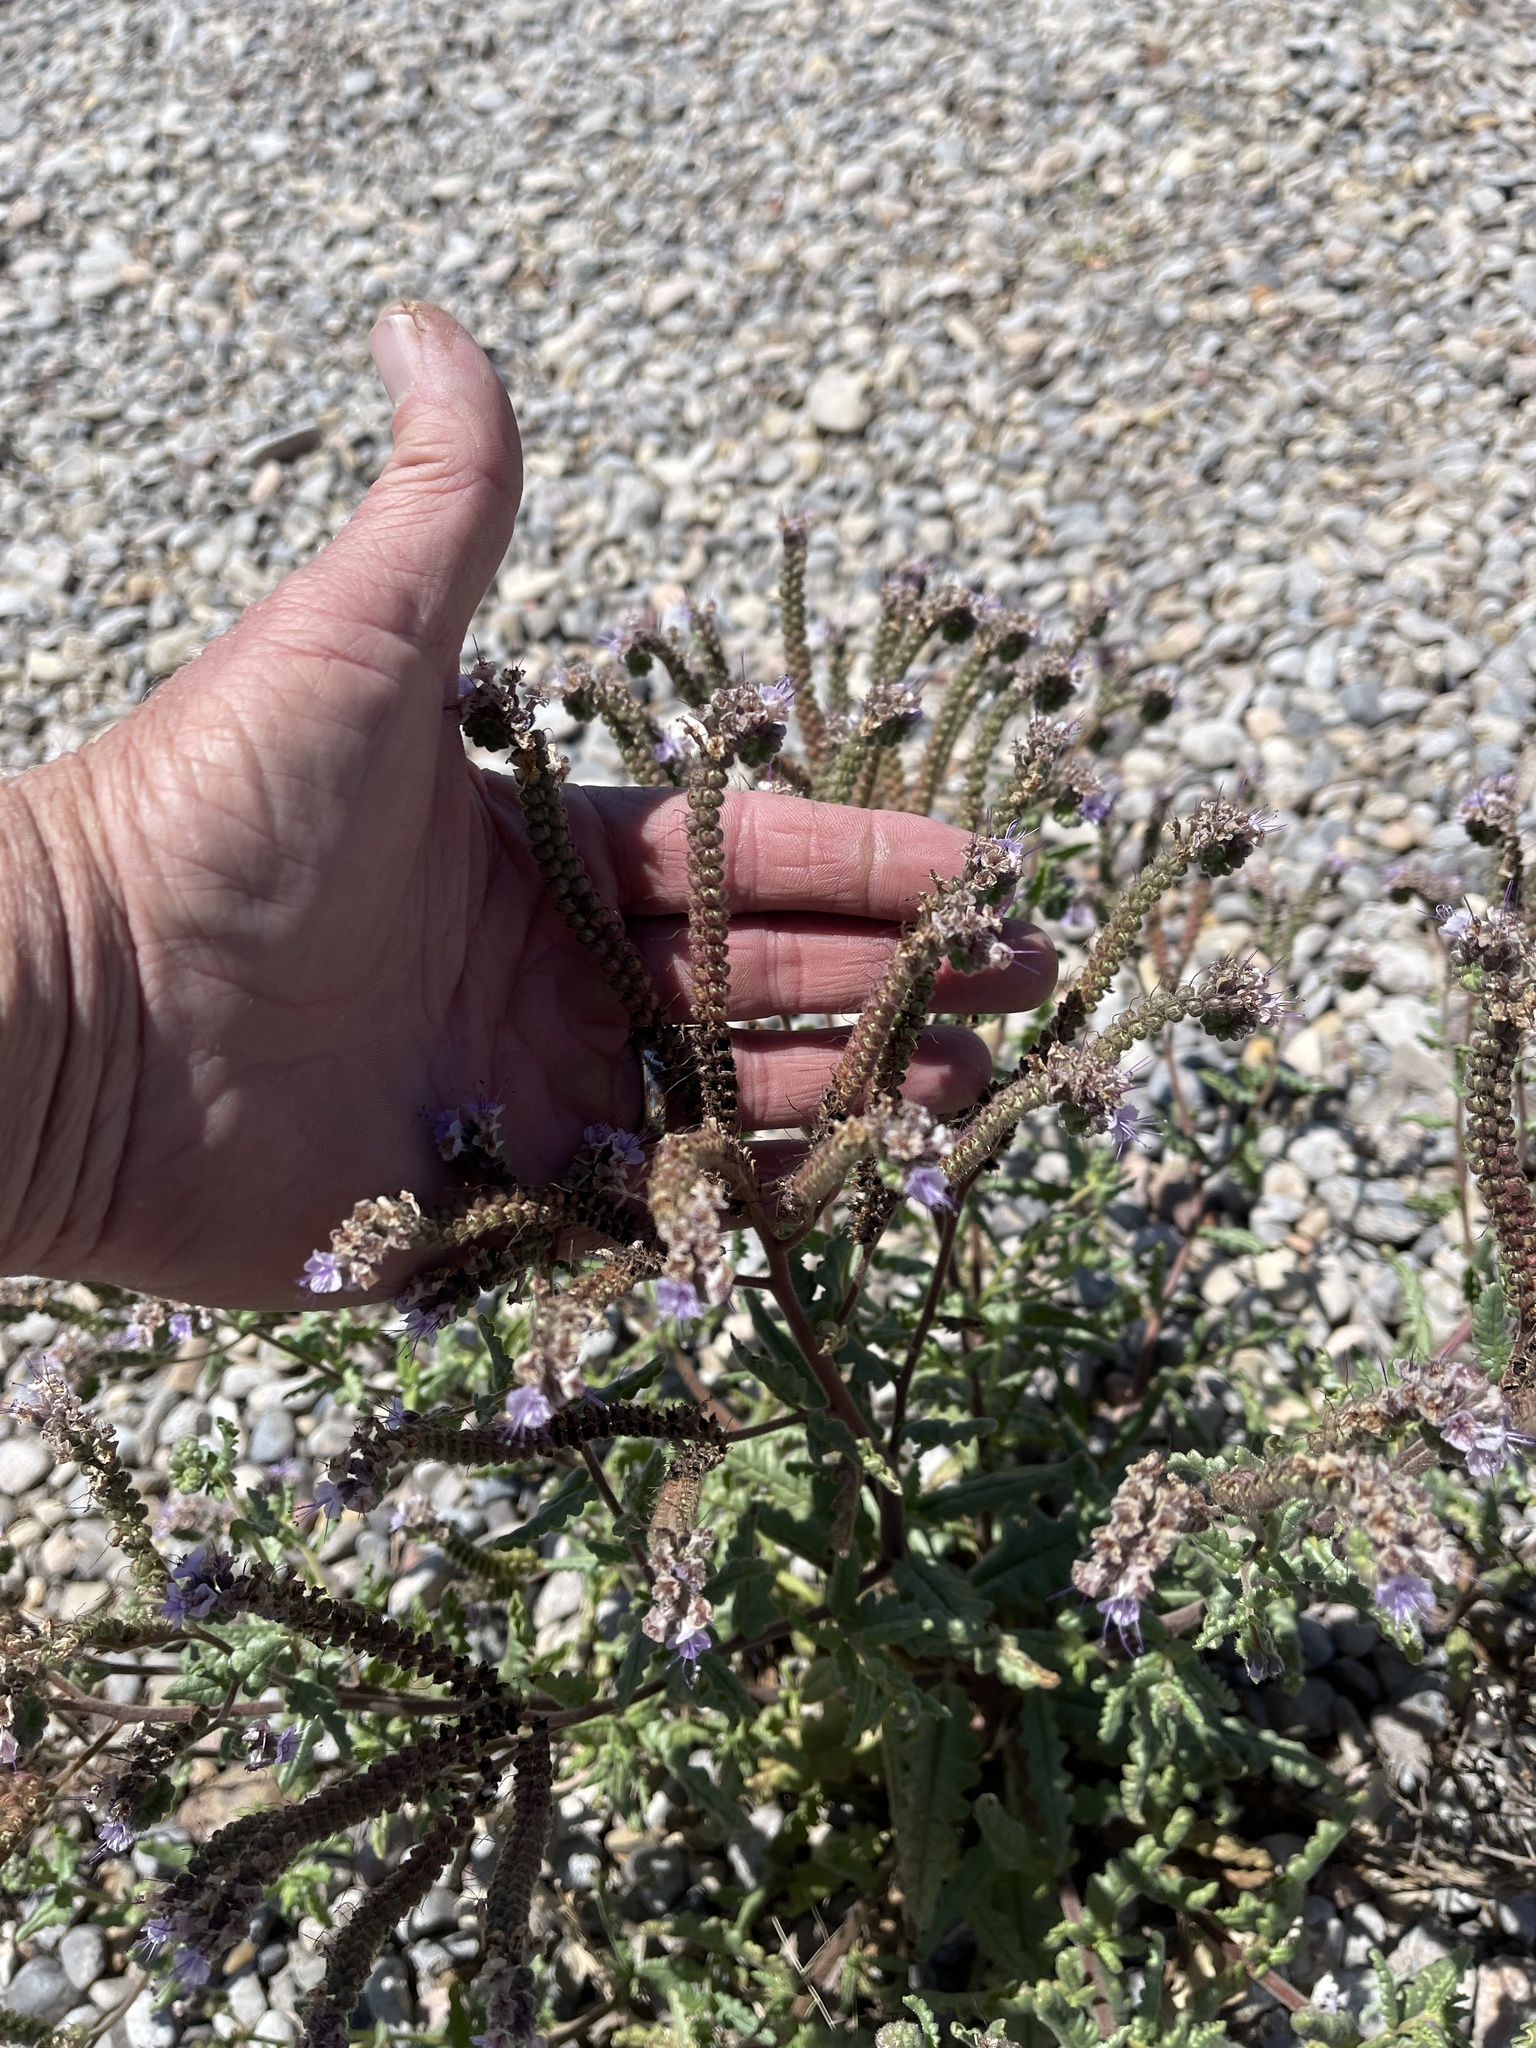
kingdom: Plantae
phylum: Tracheophyta
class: Magnoliopsida
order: Boraginales
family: Hydrophyllaceae
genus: Phacelia
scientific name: Phacelia integrifolia
